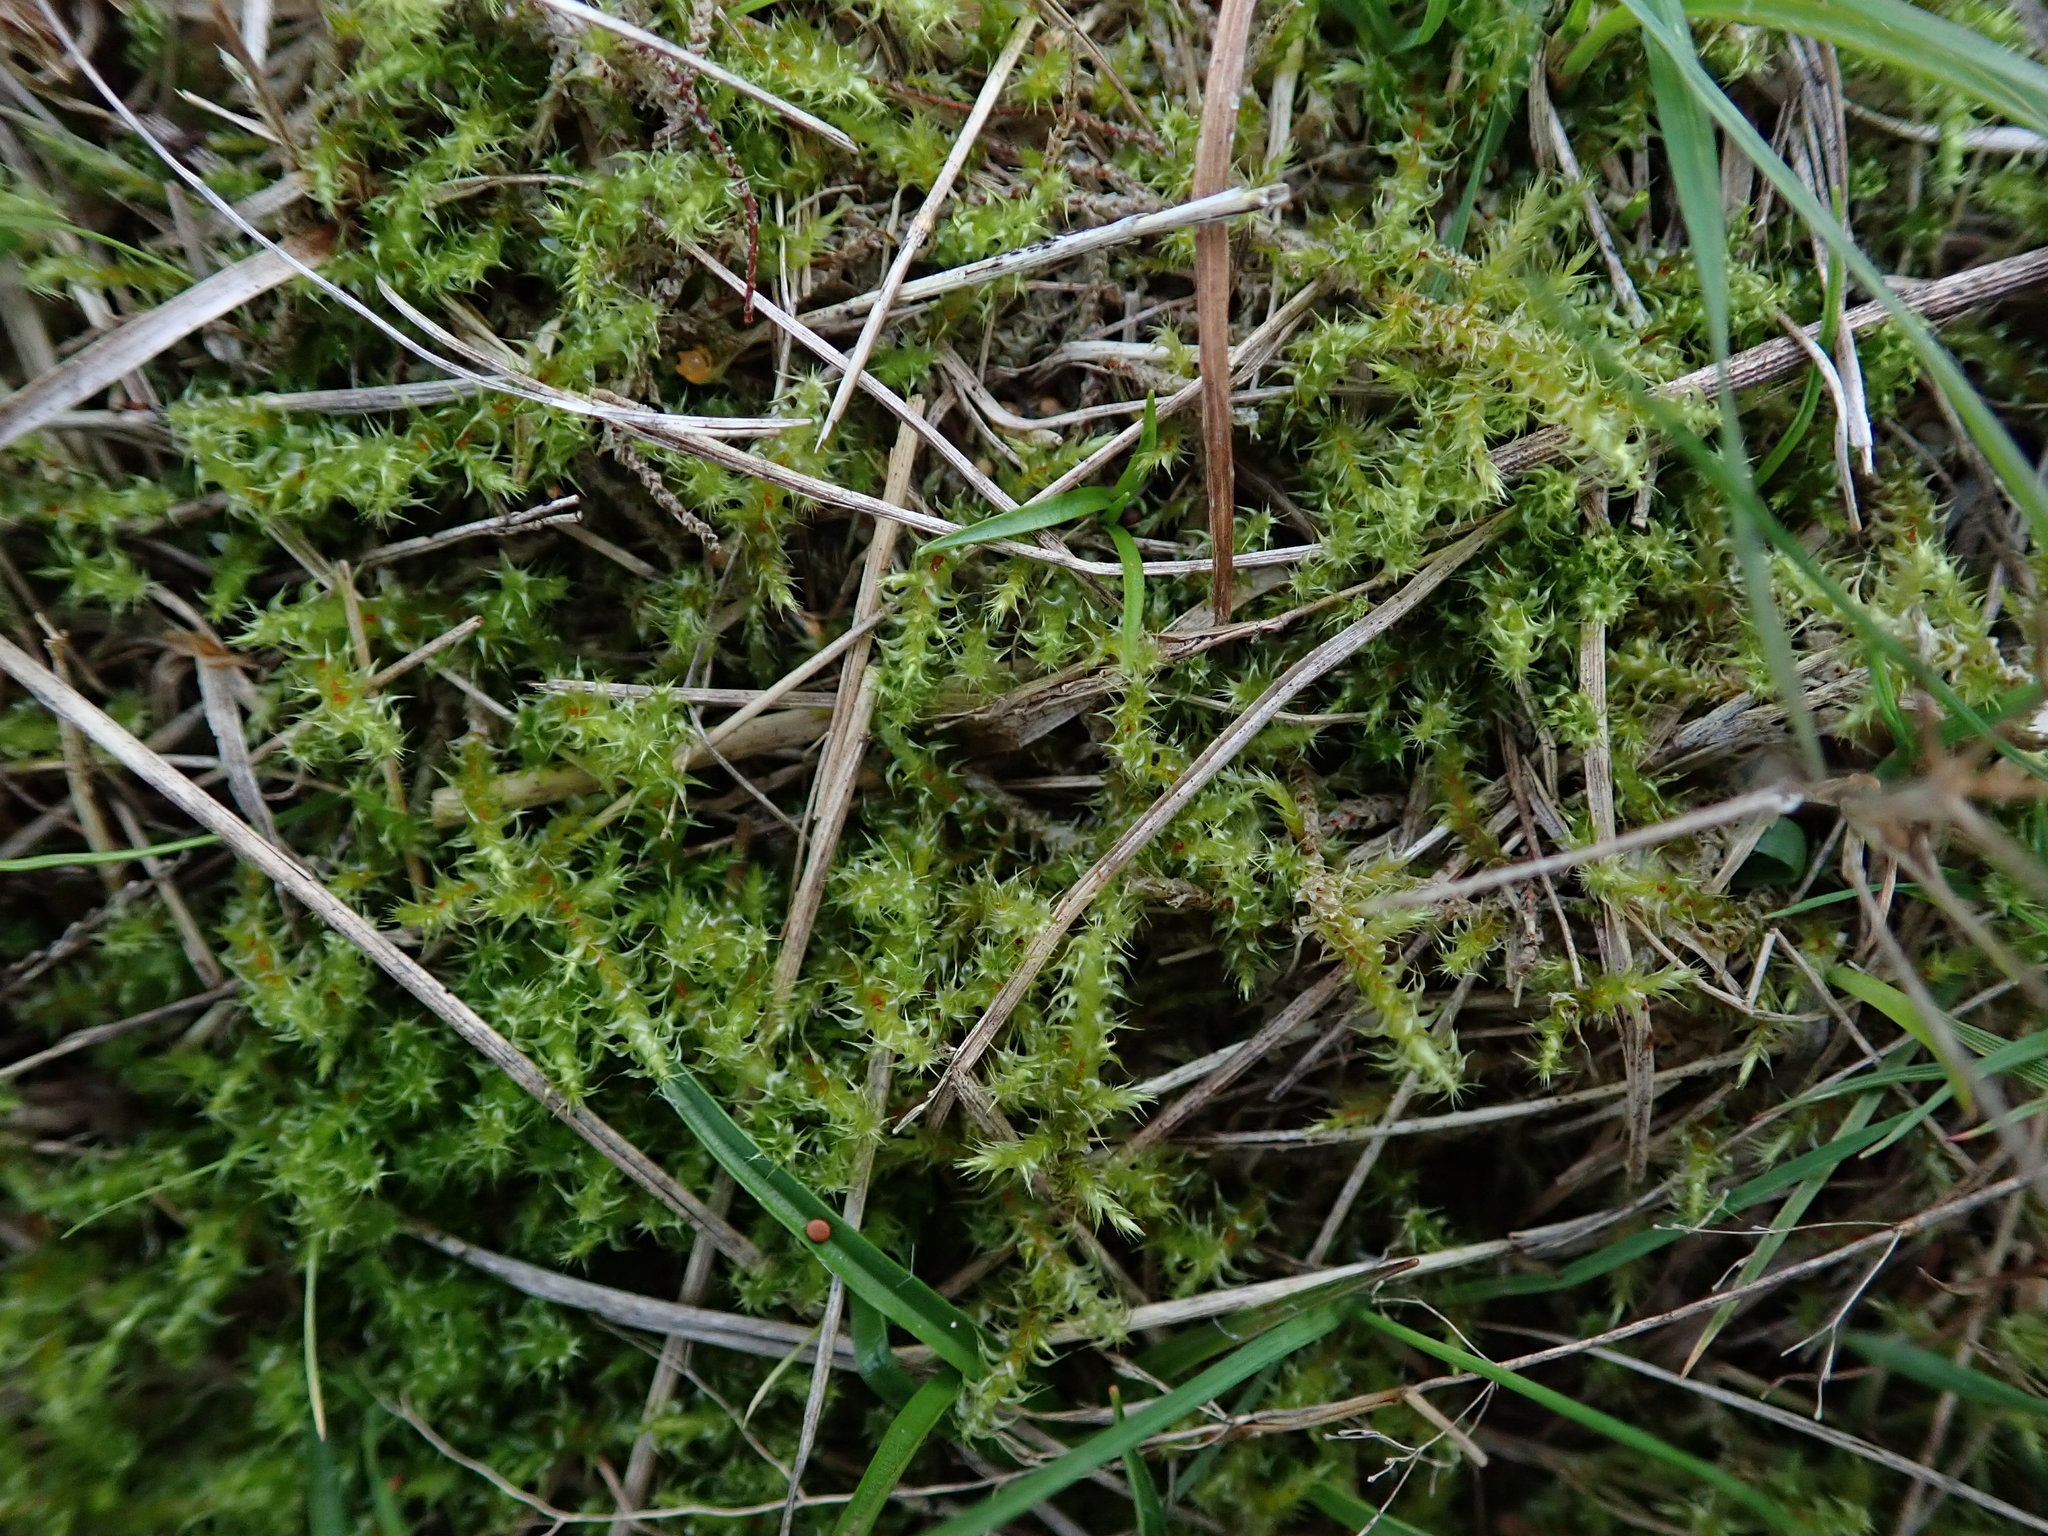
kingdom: Plantae
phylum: Bryophyta
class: Bryopsida
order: Hypnales
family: Hylocomiaceae
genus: Rhytidiadelphus
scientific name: Rhytidiadelphus squarrosus
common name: Springy turf-moss
